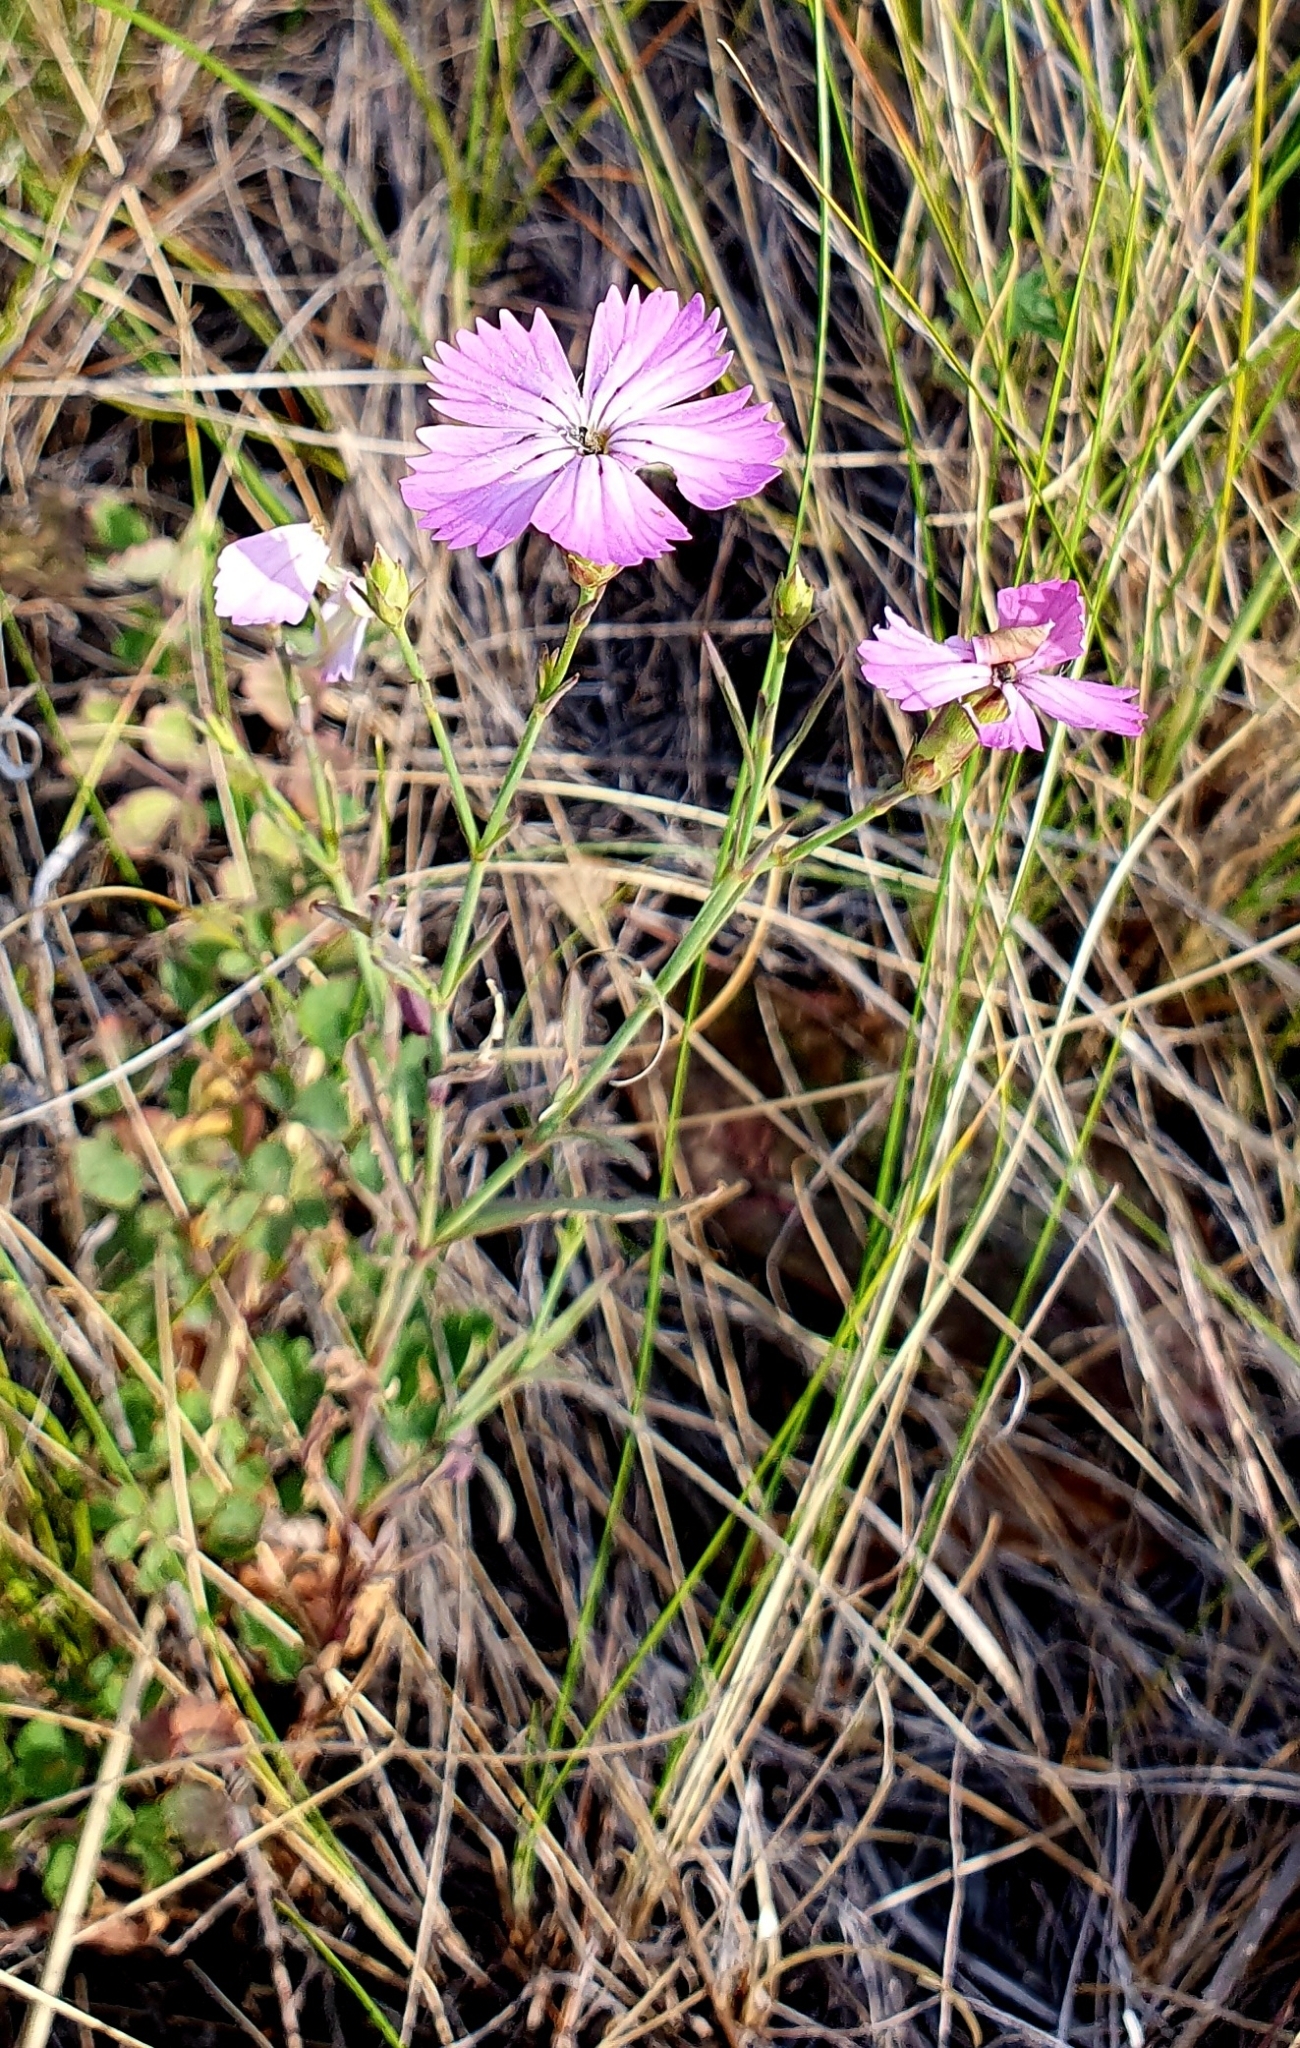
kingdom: Plantae
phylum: Tracheophyta
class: Magnoliopsida
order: Caryophyllales
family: Caryophyllaceae
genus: Dianthus
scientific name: Dianthus chinensis
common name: Rainbow pink
